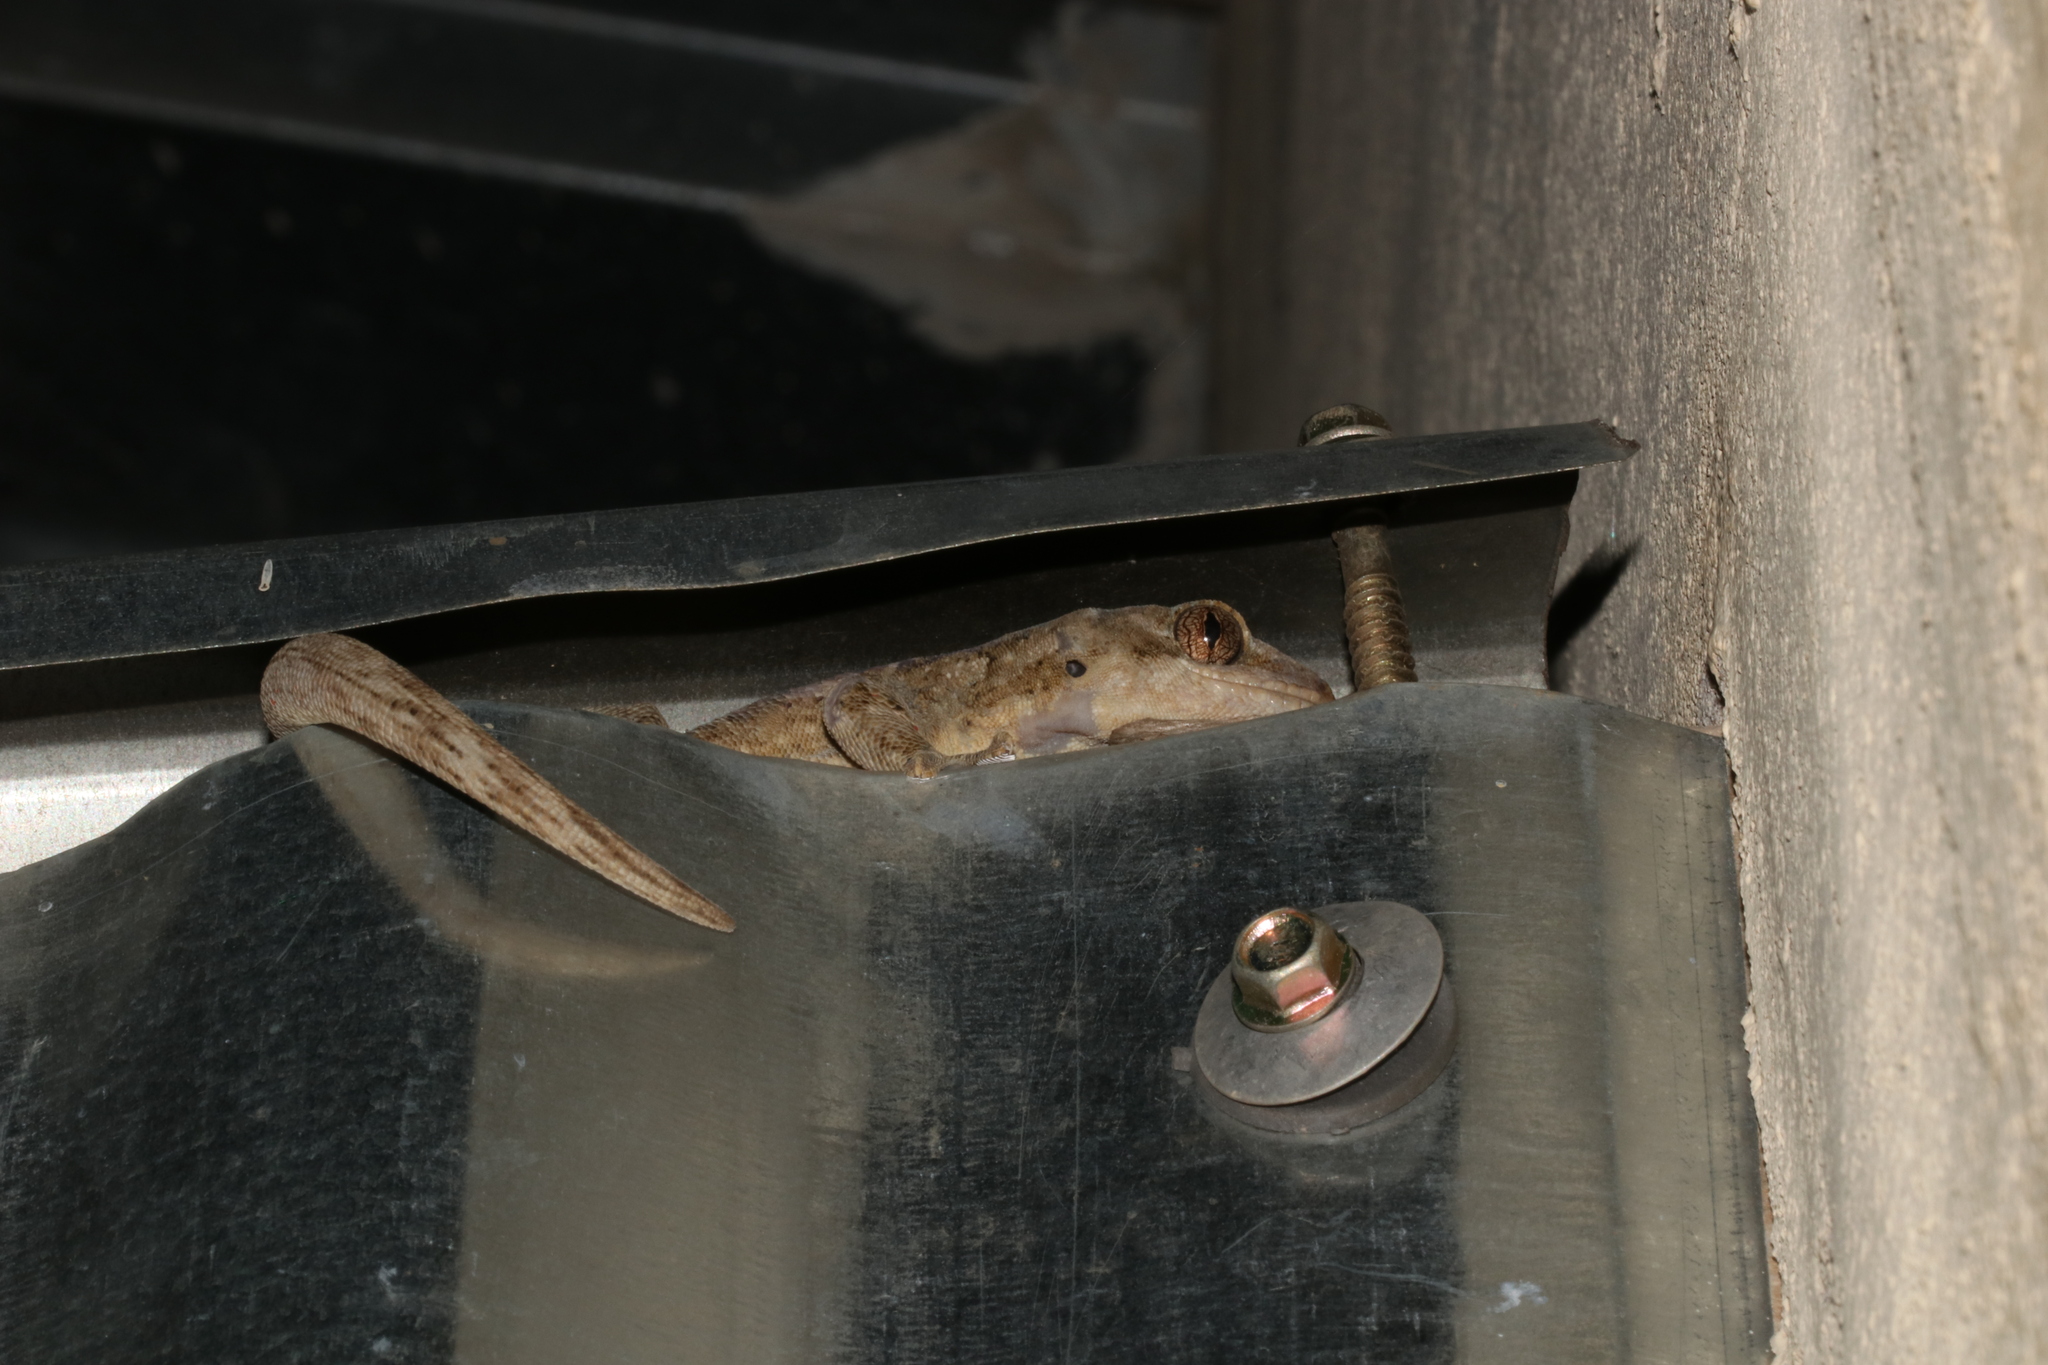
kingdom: Animalia
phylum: Chordata
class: Squamata
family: Gekkonidae
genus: Homopholis
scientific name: Homopholis walbergii
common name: Wahlberg’s velvet gecko
